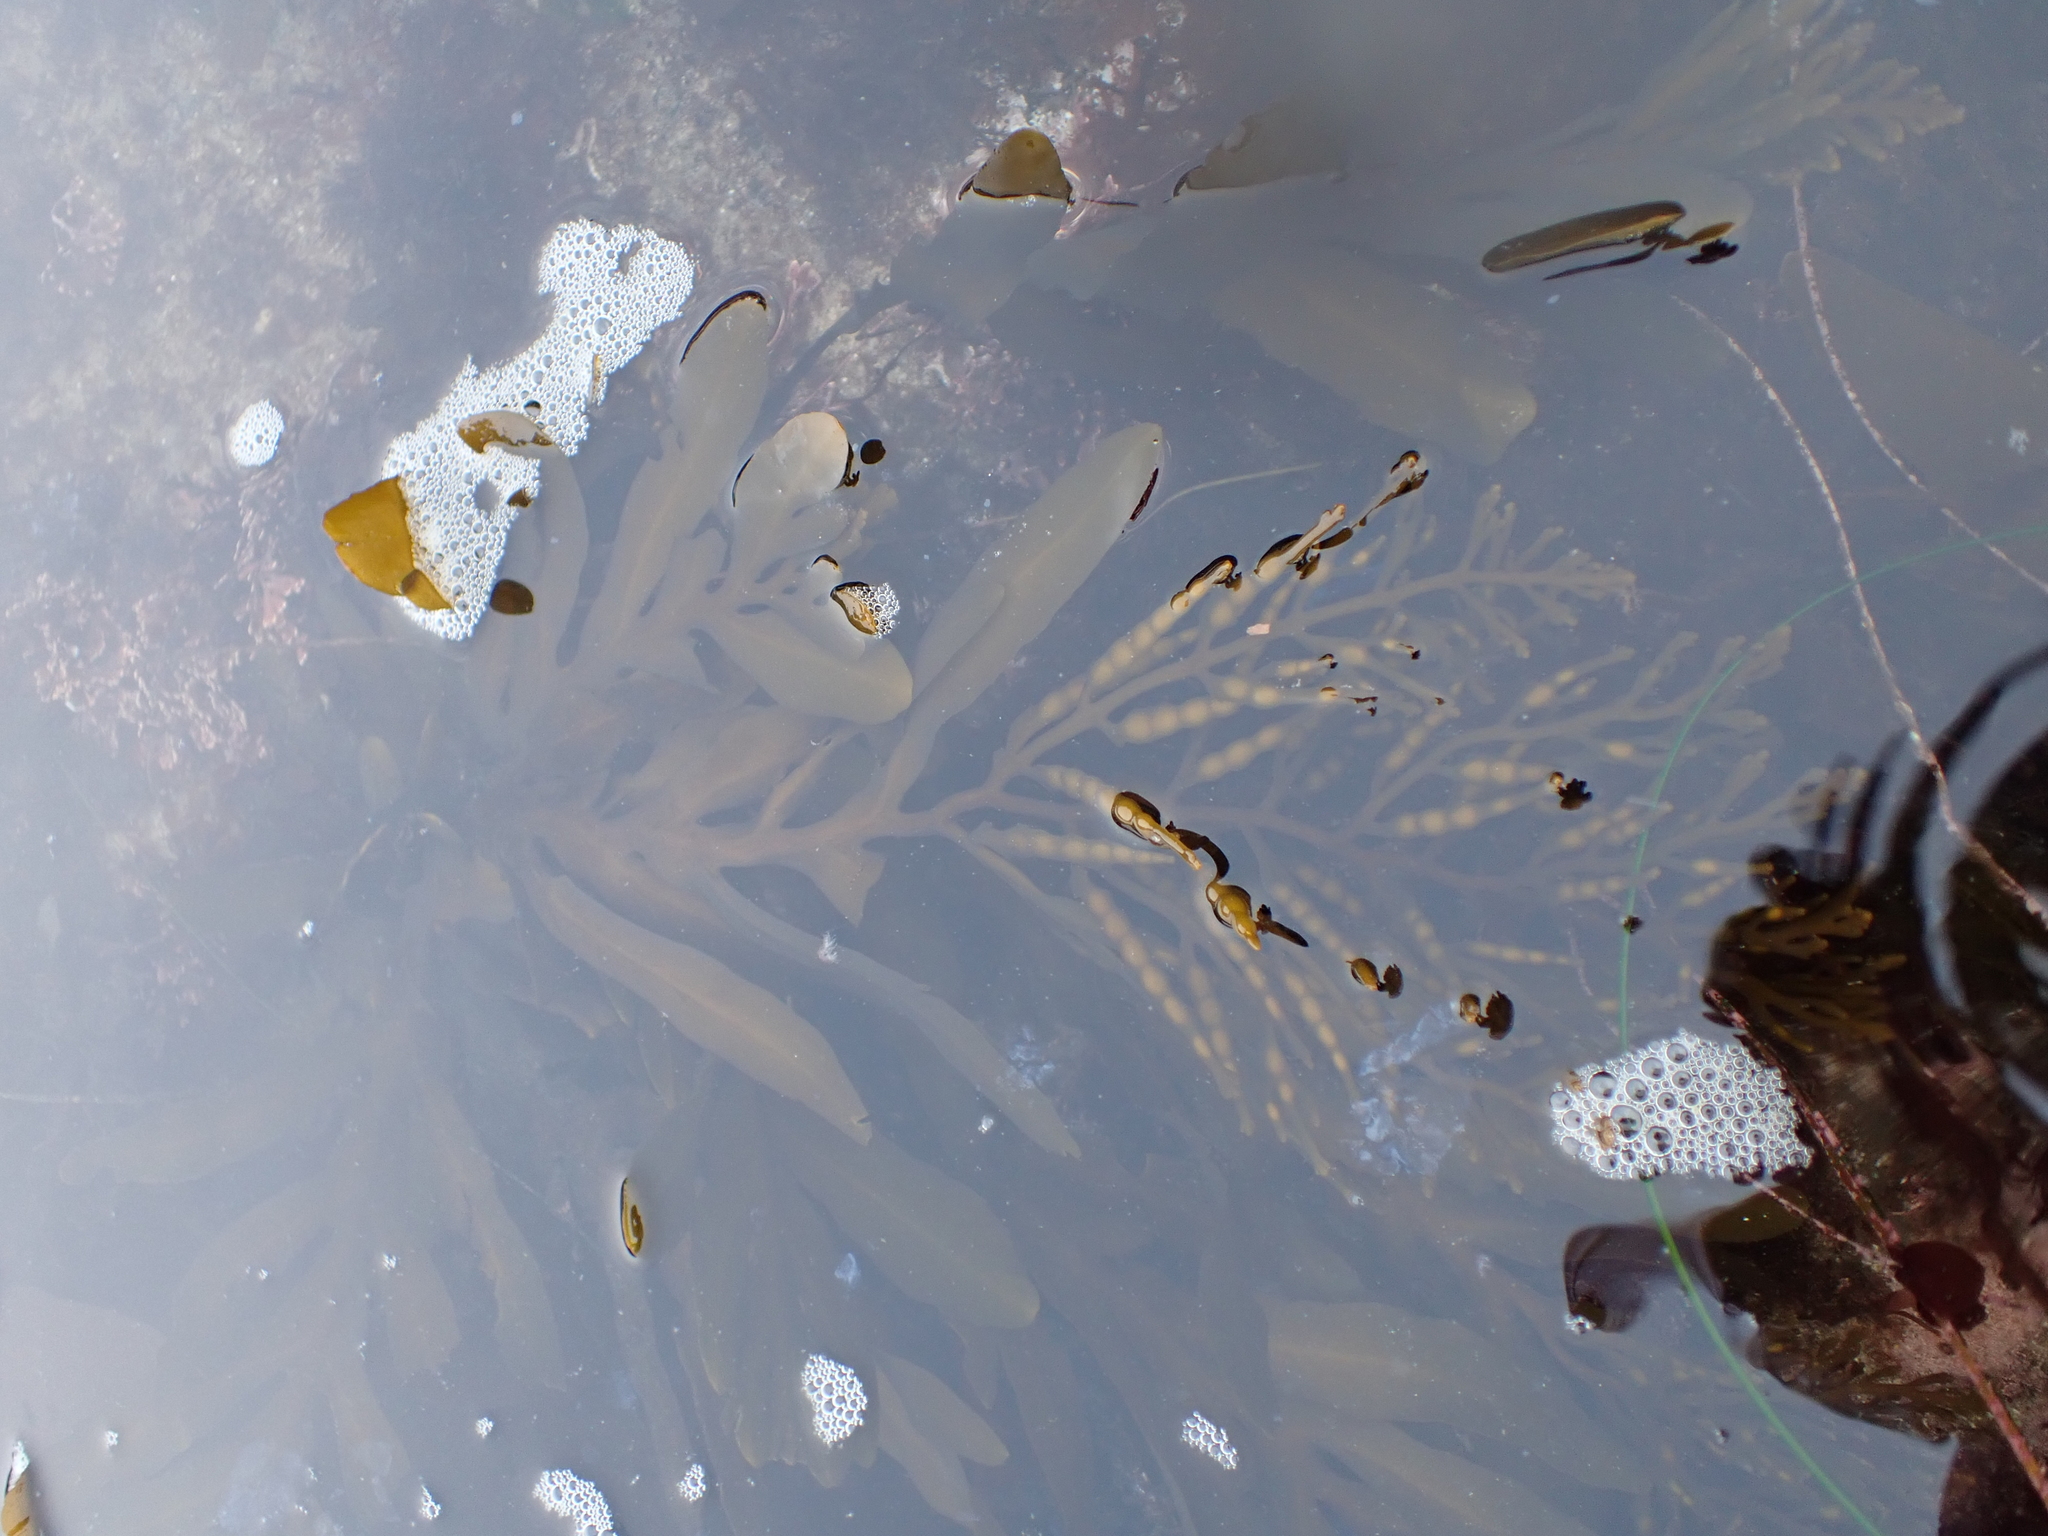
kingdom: Chromista
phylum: Ochrophyta
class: Phaeophyceae
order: Fucales
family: Sargassaceae
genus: Stephanocystis
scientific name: Stephanocystis
